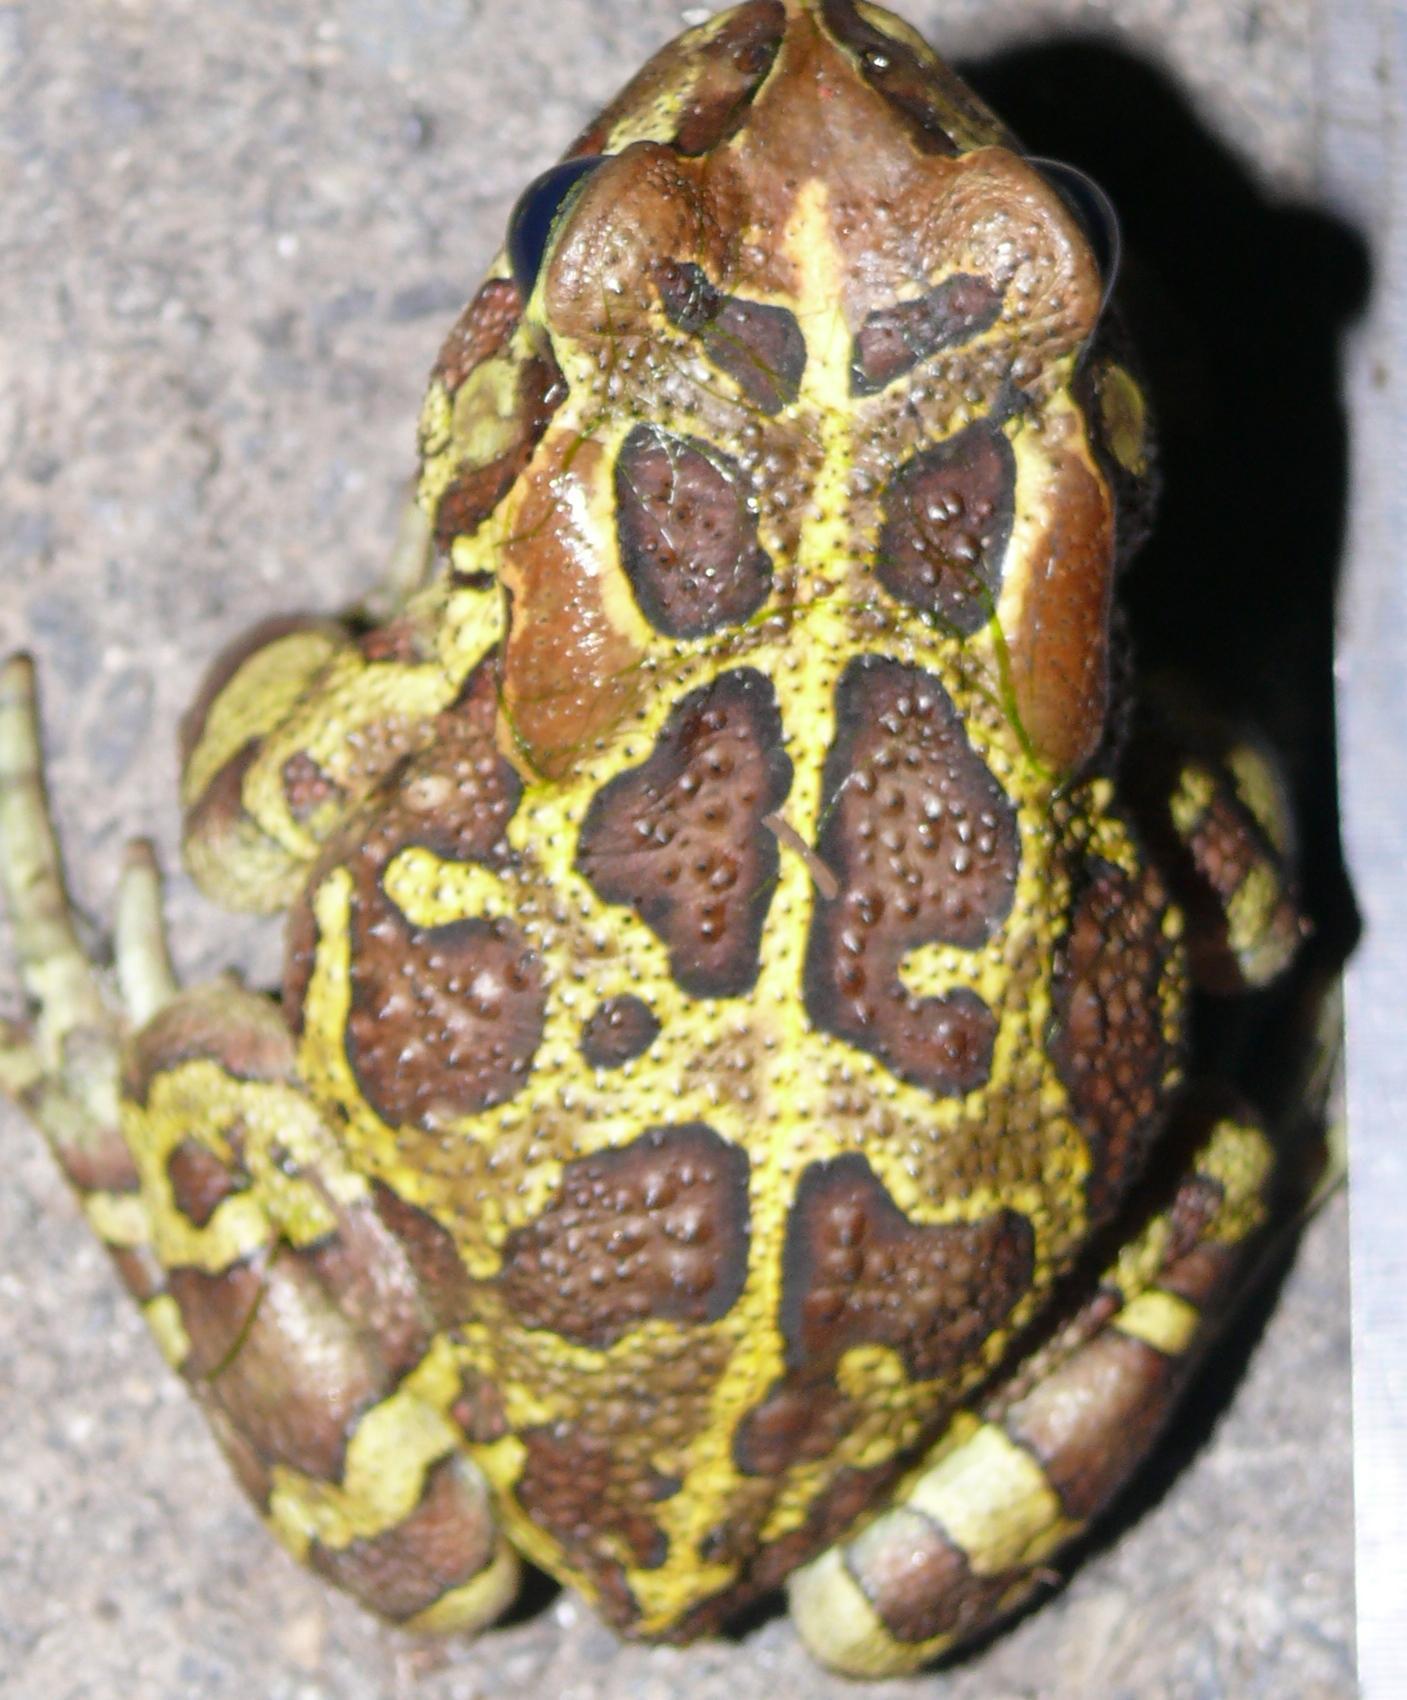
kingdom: Animalia
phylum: Chordata
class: Amphibia
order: Anura
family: Bufonidae
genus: Sclerophrys
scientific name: Sclerophrys pantherina
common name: Panther toad
